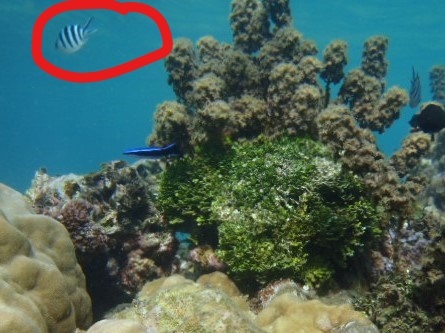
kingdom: Animalia
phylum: Chordata
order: Perciformes
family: Pomacentridae
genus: Abudefduf
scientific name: Abudefduf sexfasciatus
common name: Scissortail sergeant
